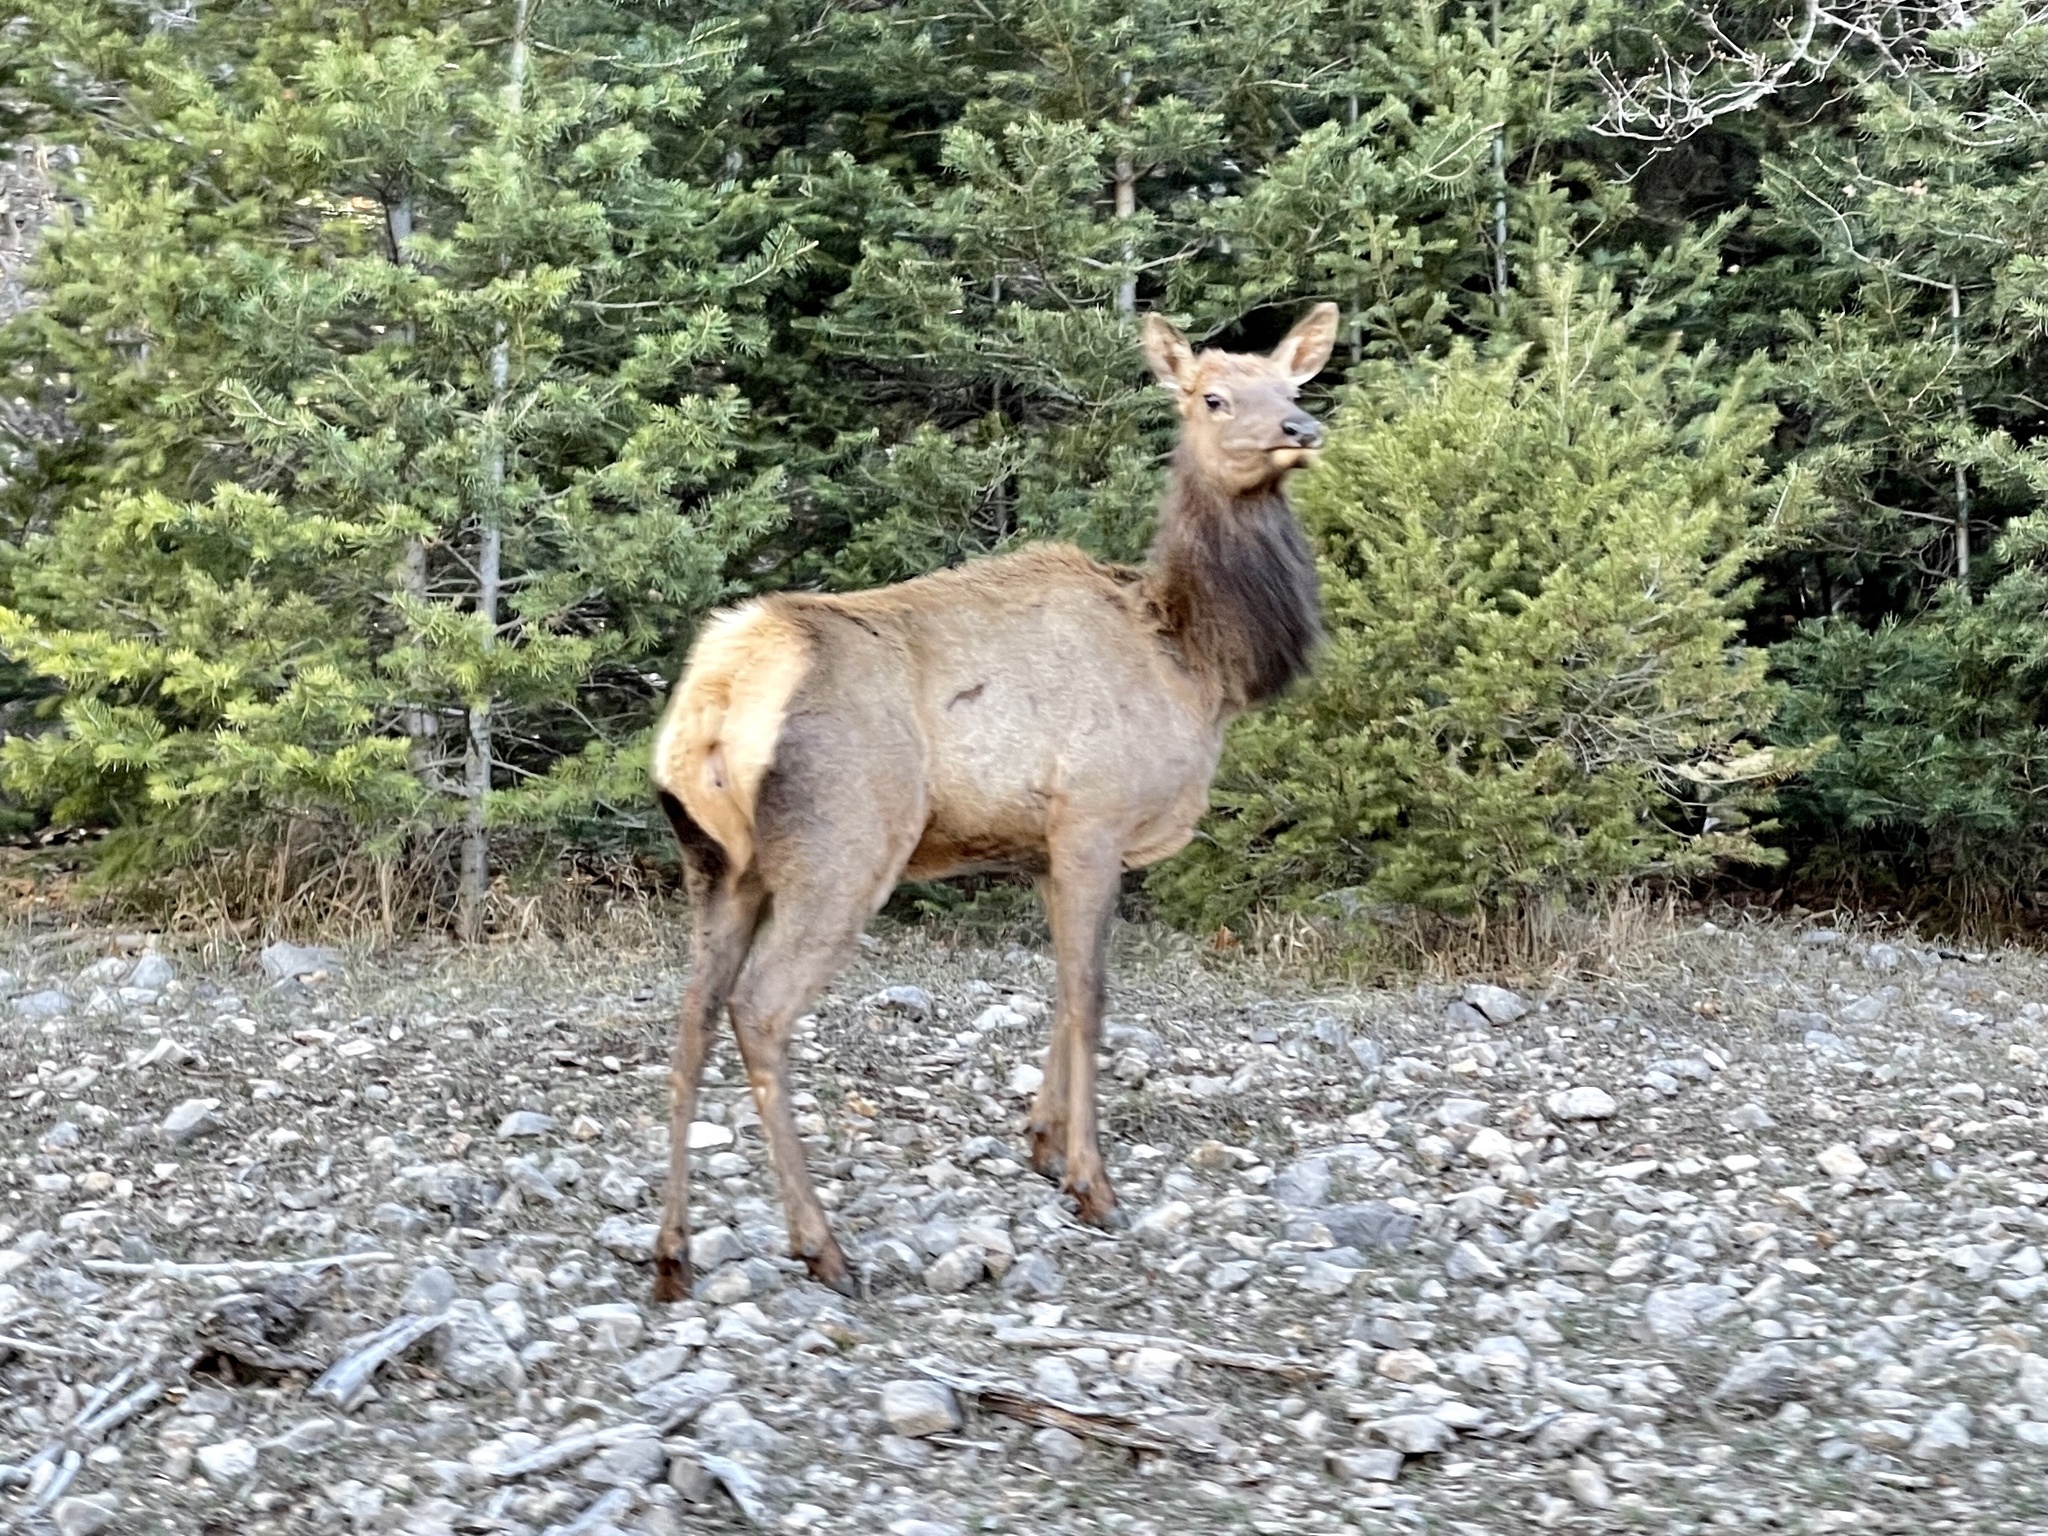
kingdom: Animalia
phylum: Chordata
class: Mammalia
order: Artiodactyla
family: Cervidae
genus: Cervus
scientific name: Cervus elaphus
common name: Red deer
